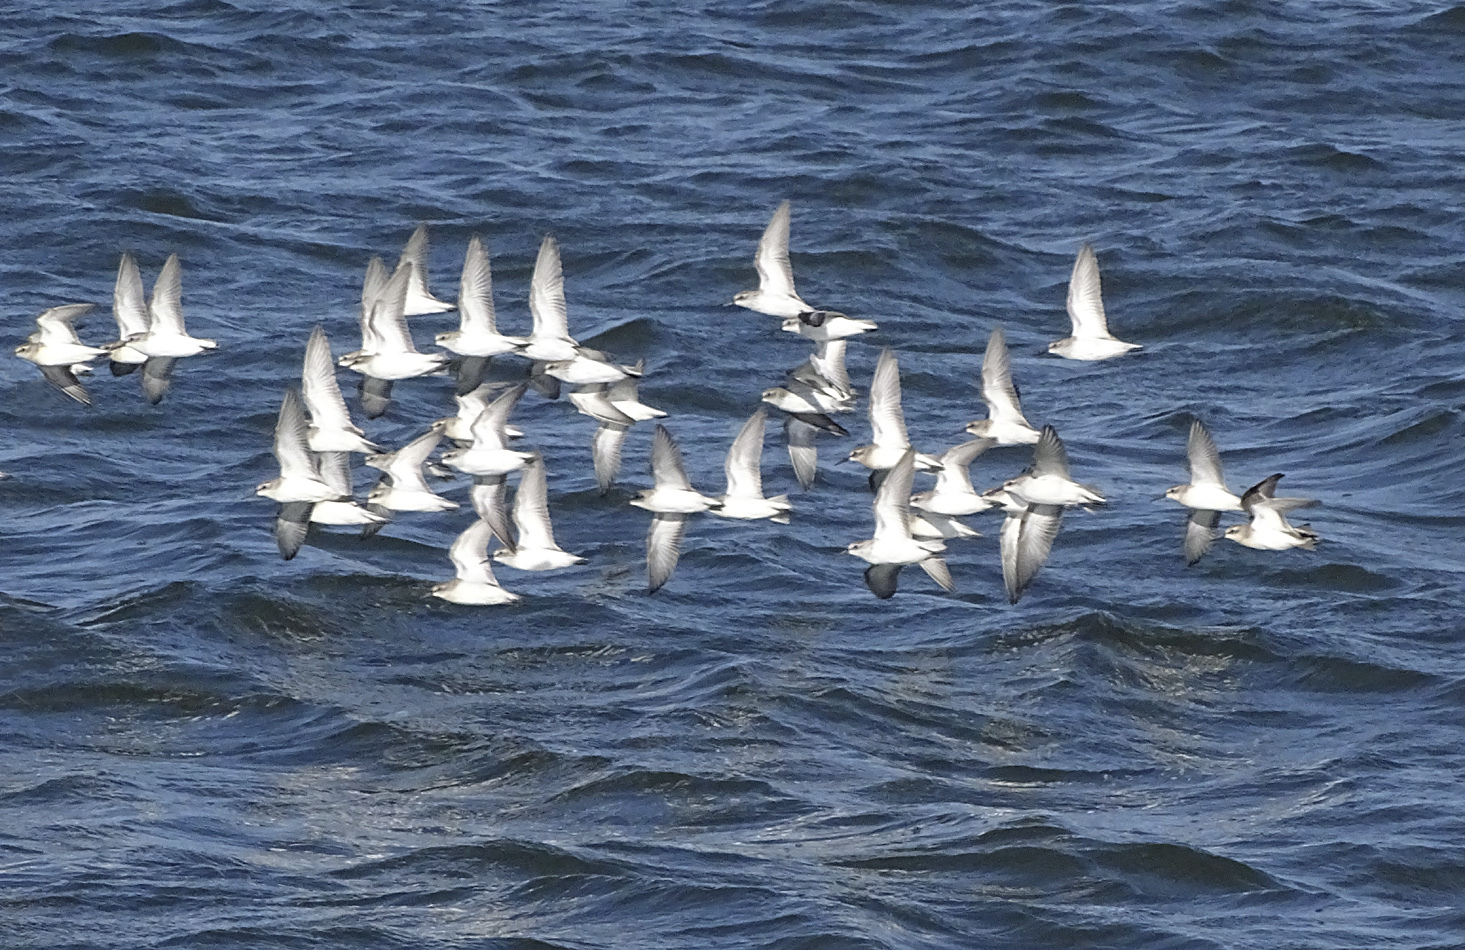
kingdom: Animalia
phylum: Chordata
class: Aves
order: Charadriiformes
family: Scolopacidae
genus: Calidris
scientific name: Calidris mauri
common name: Western sandpiper
